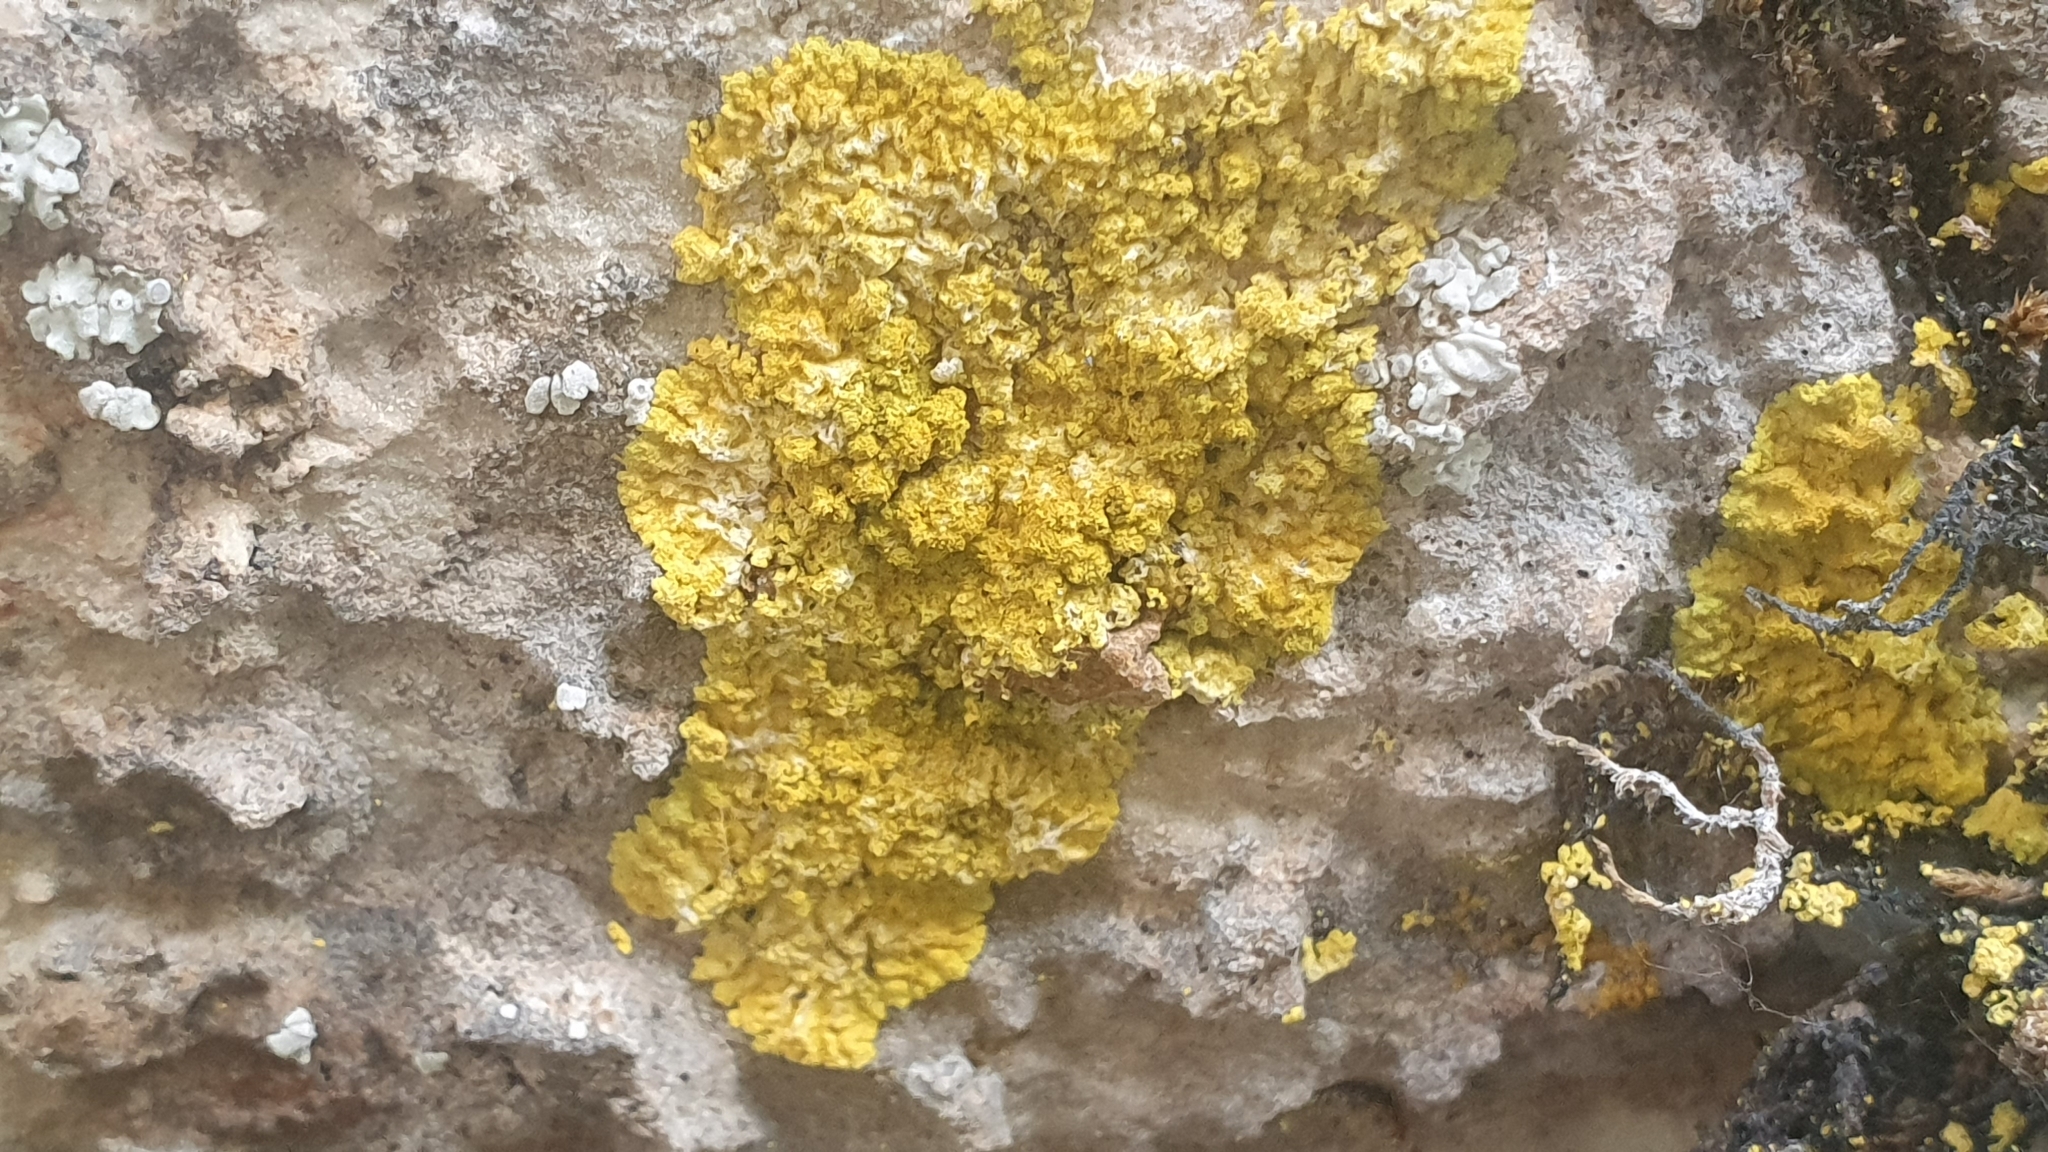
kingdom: Fungi
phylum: Ascomycota
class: Lecanoromycetes
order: Teloschistales
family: Teloschistaceae
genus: Leproplaca
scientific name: Leproplaca xantholyta
